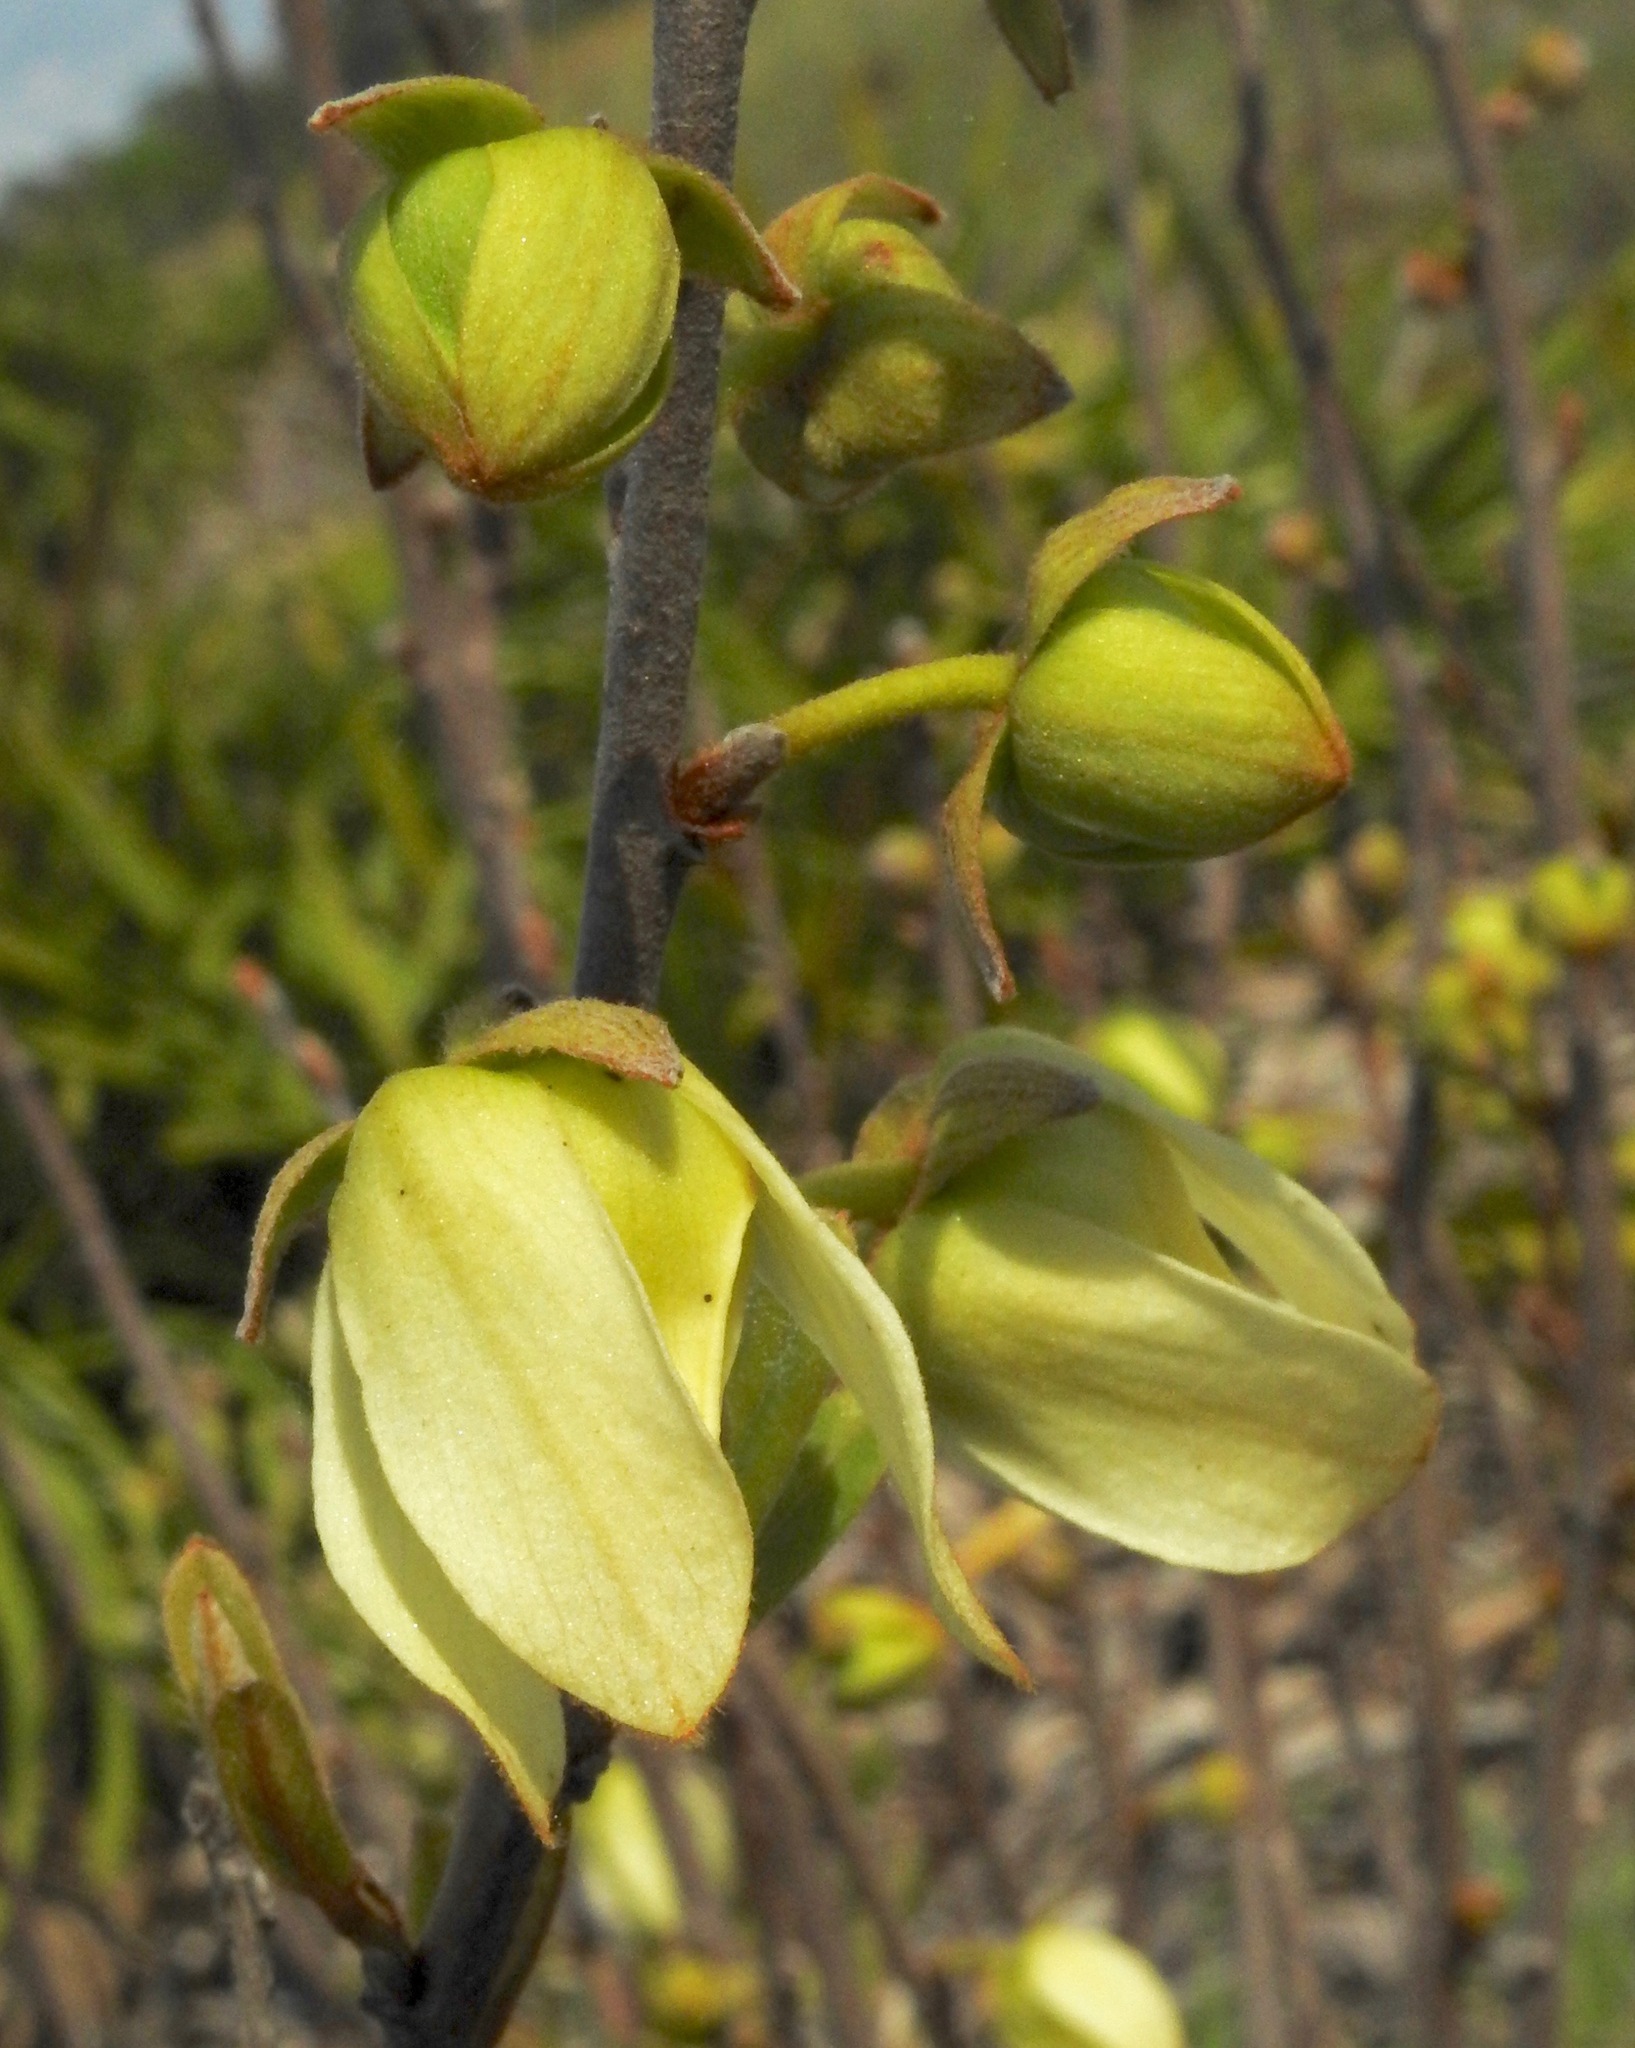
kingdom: Plantae
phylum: Tracheophyta
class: Magnoliopsida
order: Magnoliales
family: Annonaceae
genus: Asimina
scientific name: Asimina reticulata
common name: Flag pawpaw
